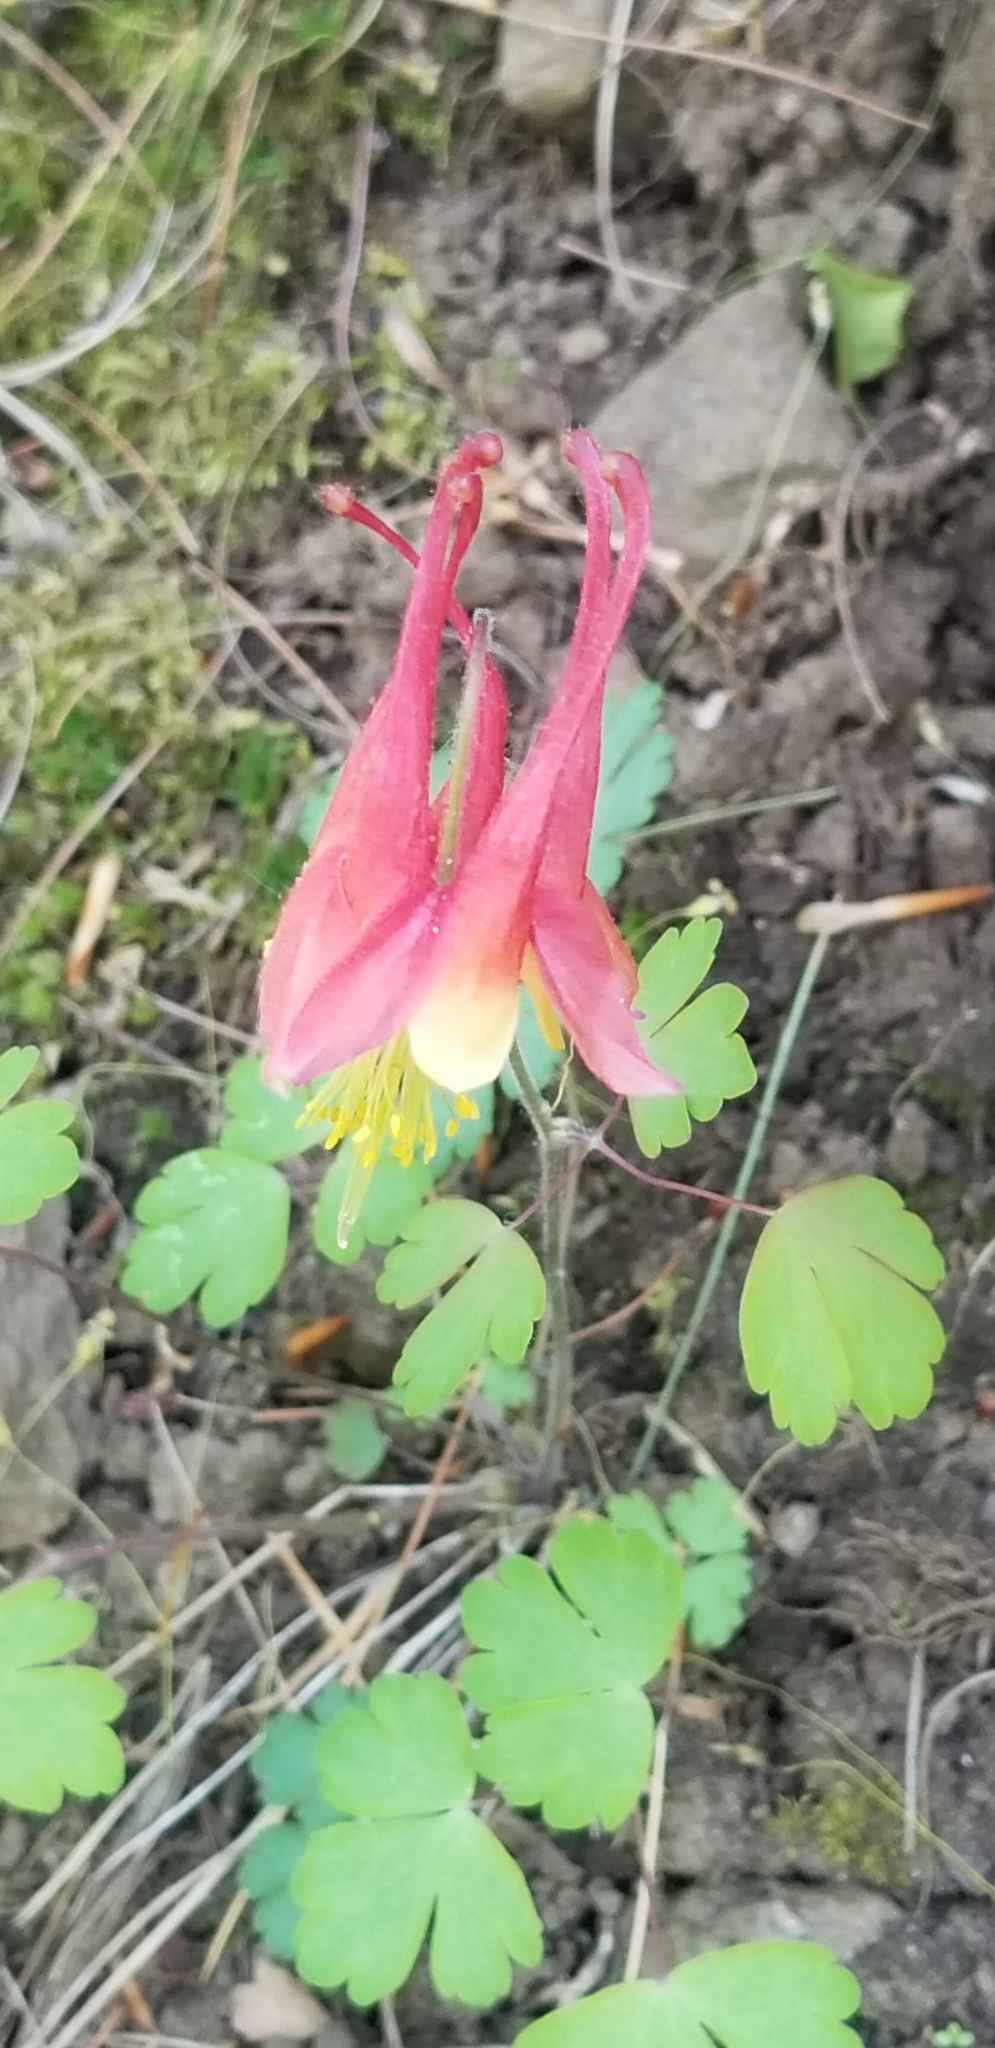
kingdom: Plantae
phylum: Tracheophyta
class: Magnoliopsida
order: Ranunculales
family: Ranunculaceae
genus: Aquilegia
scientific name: Aquilegia canadensis
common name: American columbine
